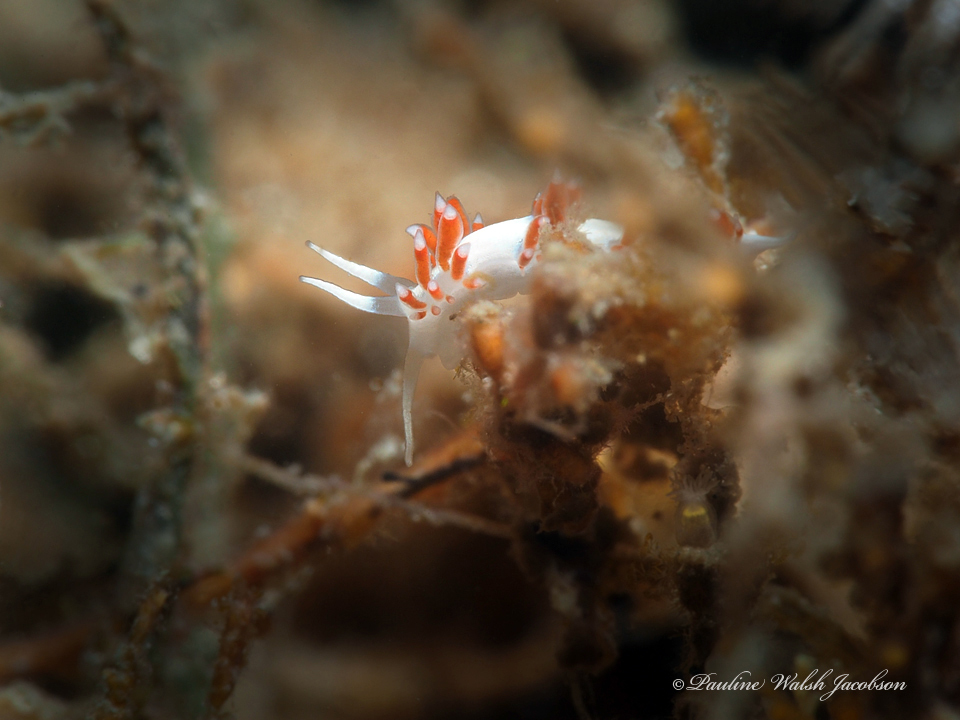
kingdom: Animalia
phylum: Mollusca
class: Gastropoda
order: Nudibranchia
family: Flabellinidae
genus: Flabellina
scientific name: Flabellina dushia
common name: Dushia flabellina
